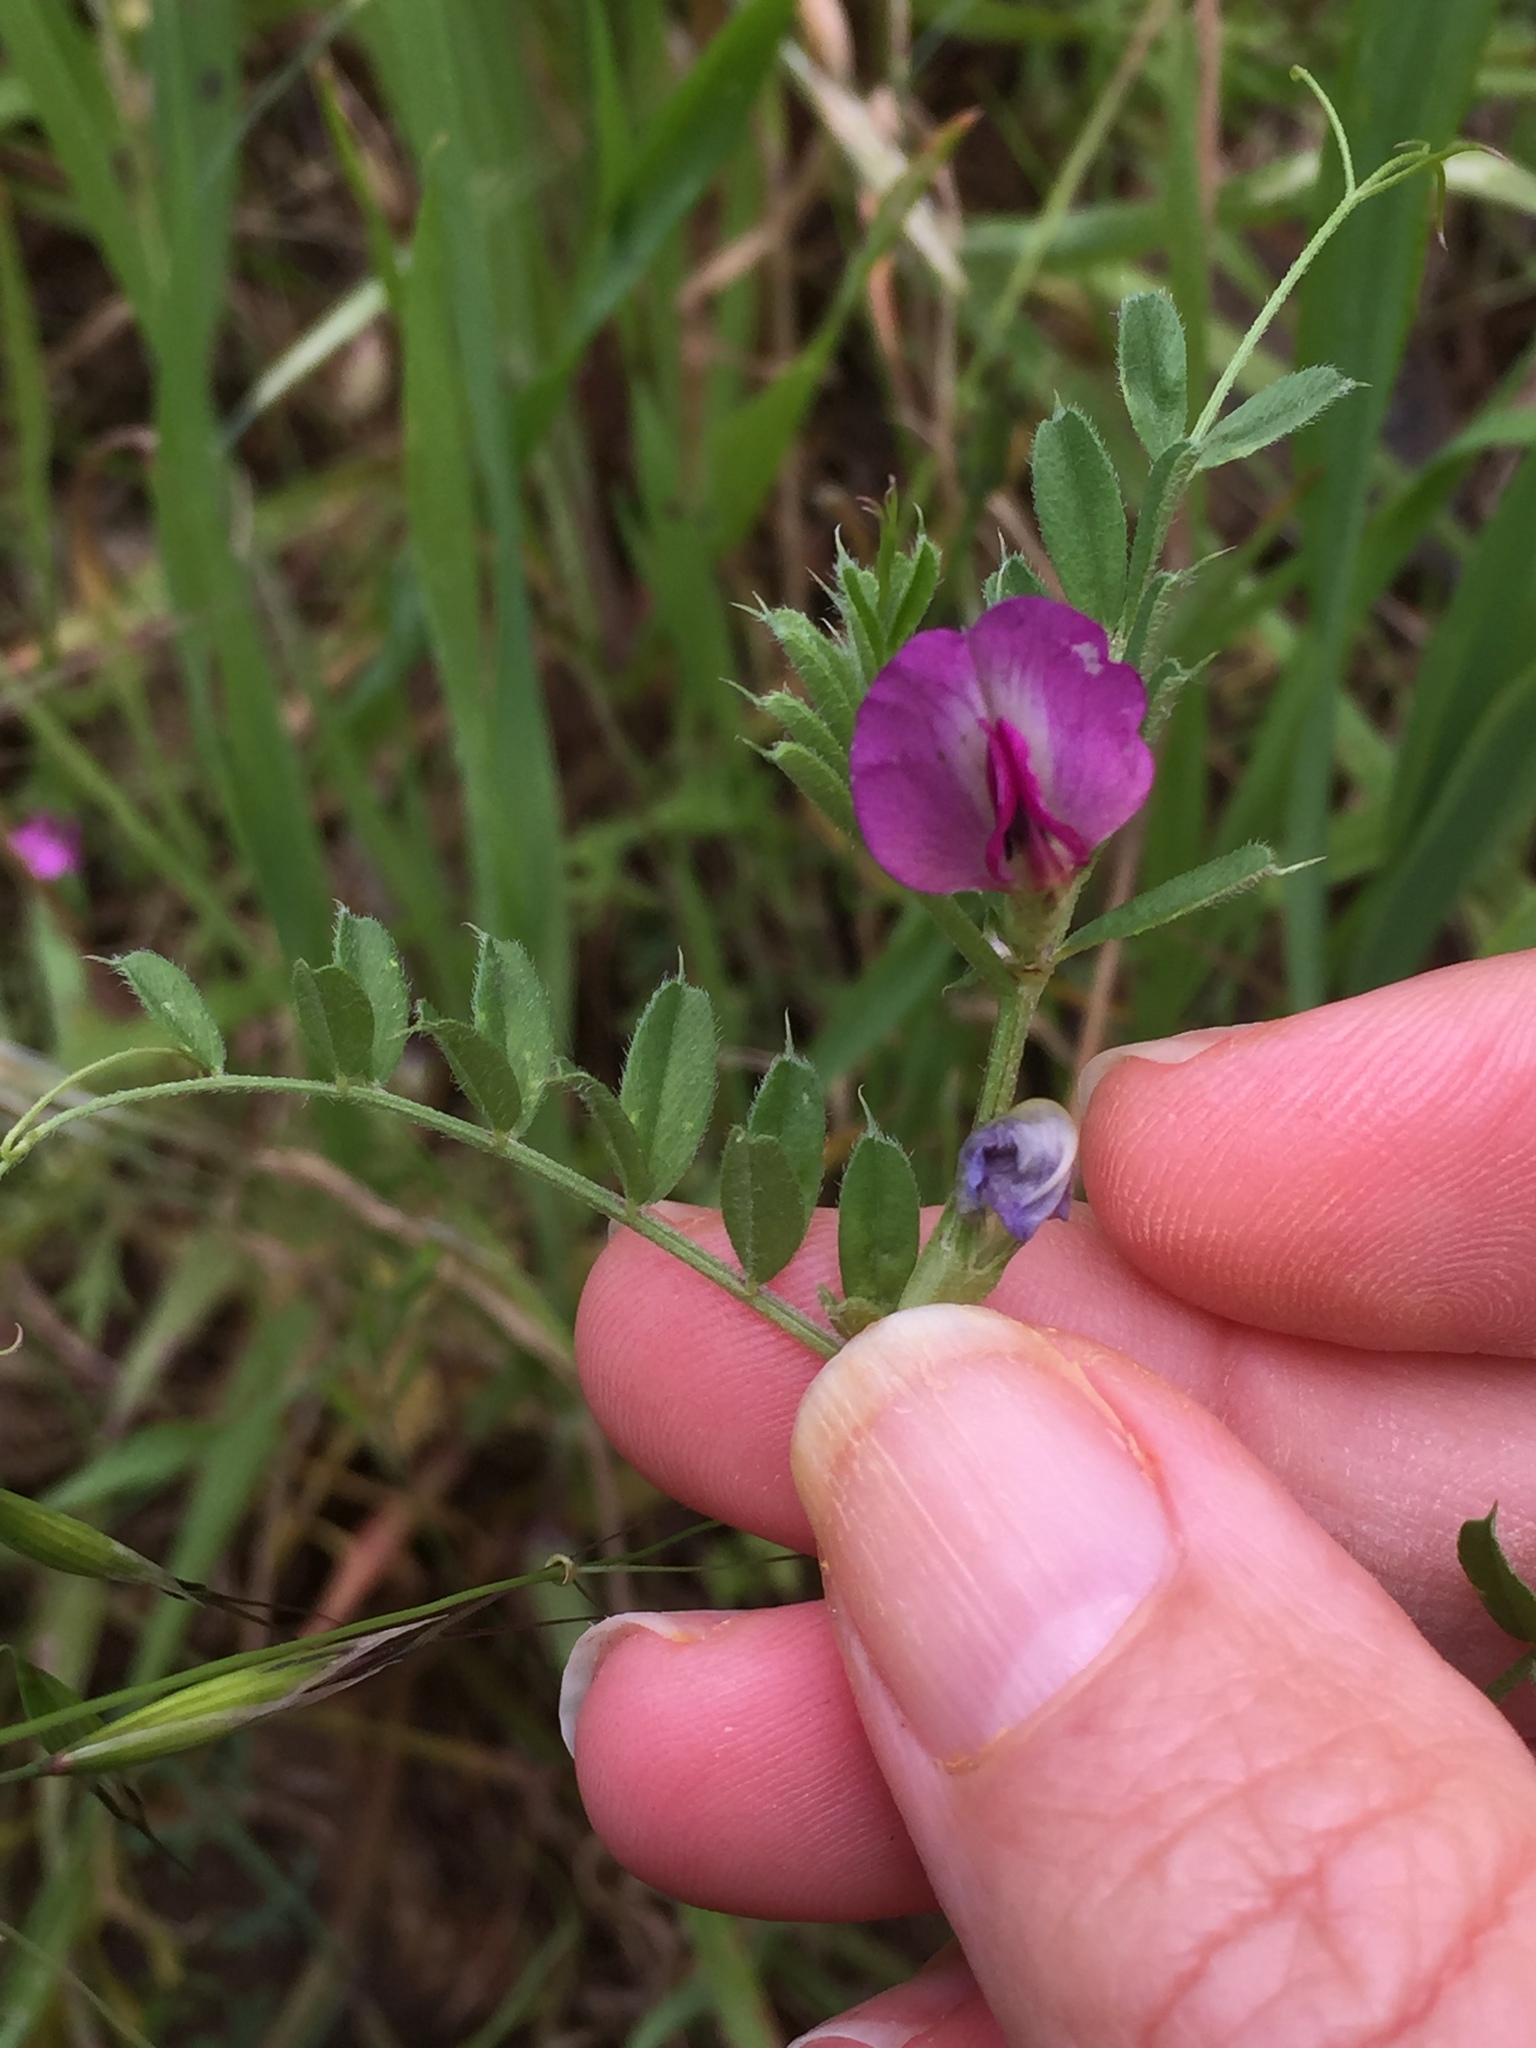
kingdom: Plantae
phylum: Tracheophyta
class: Magnoliopsida
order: Fabales
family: Fabaceae
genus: Vicia
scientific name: Vicia sativa
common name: Garden vetch
